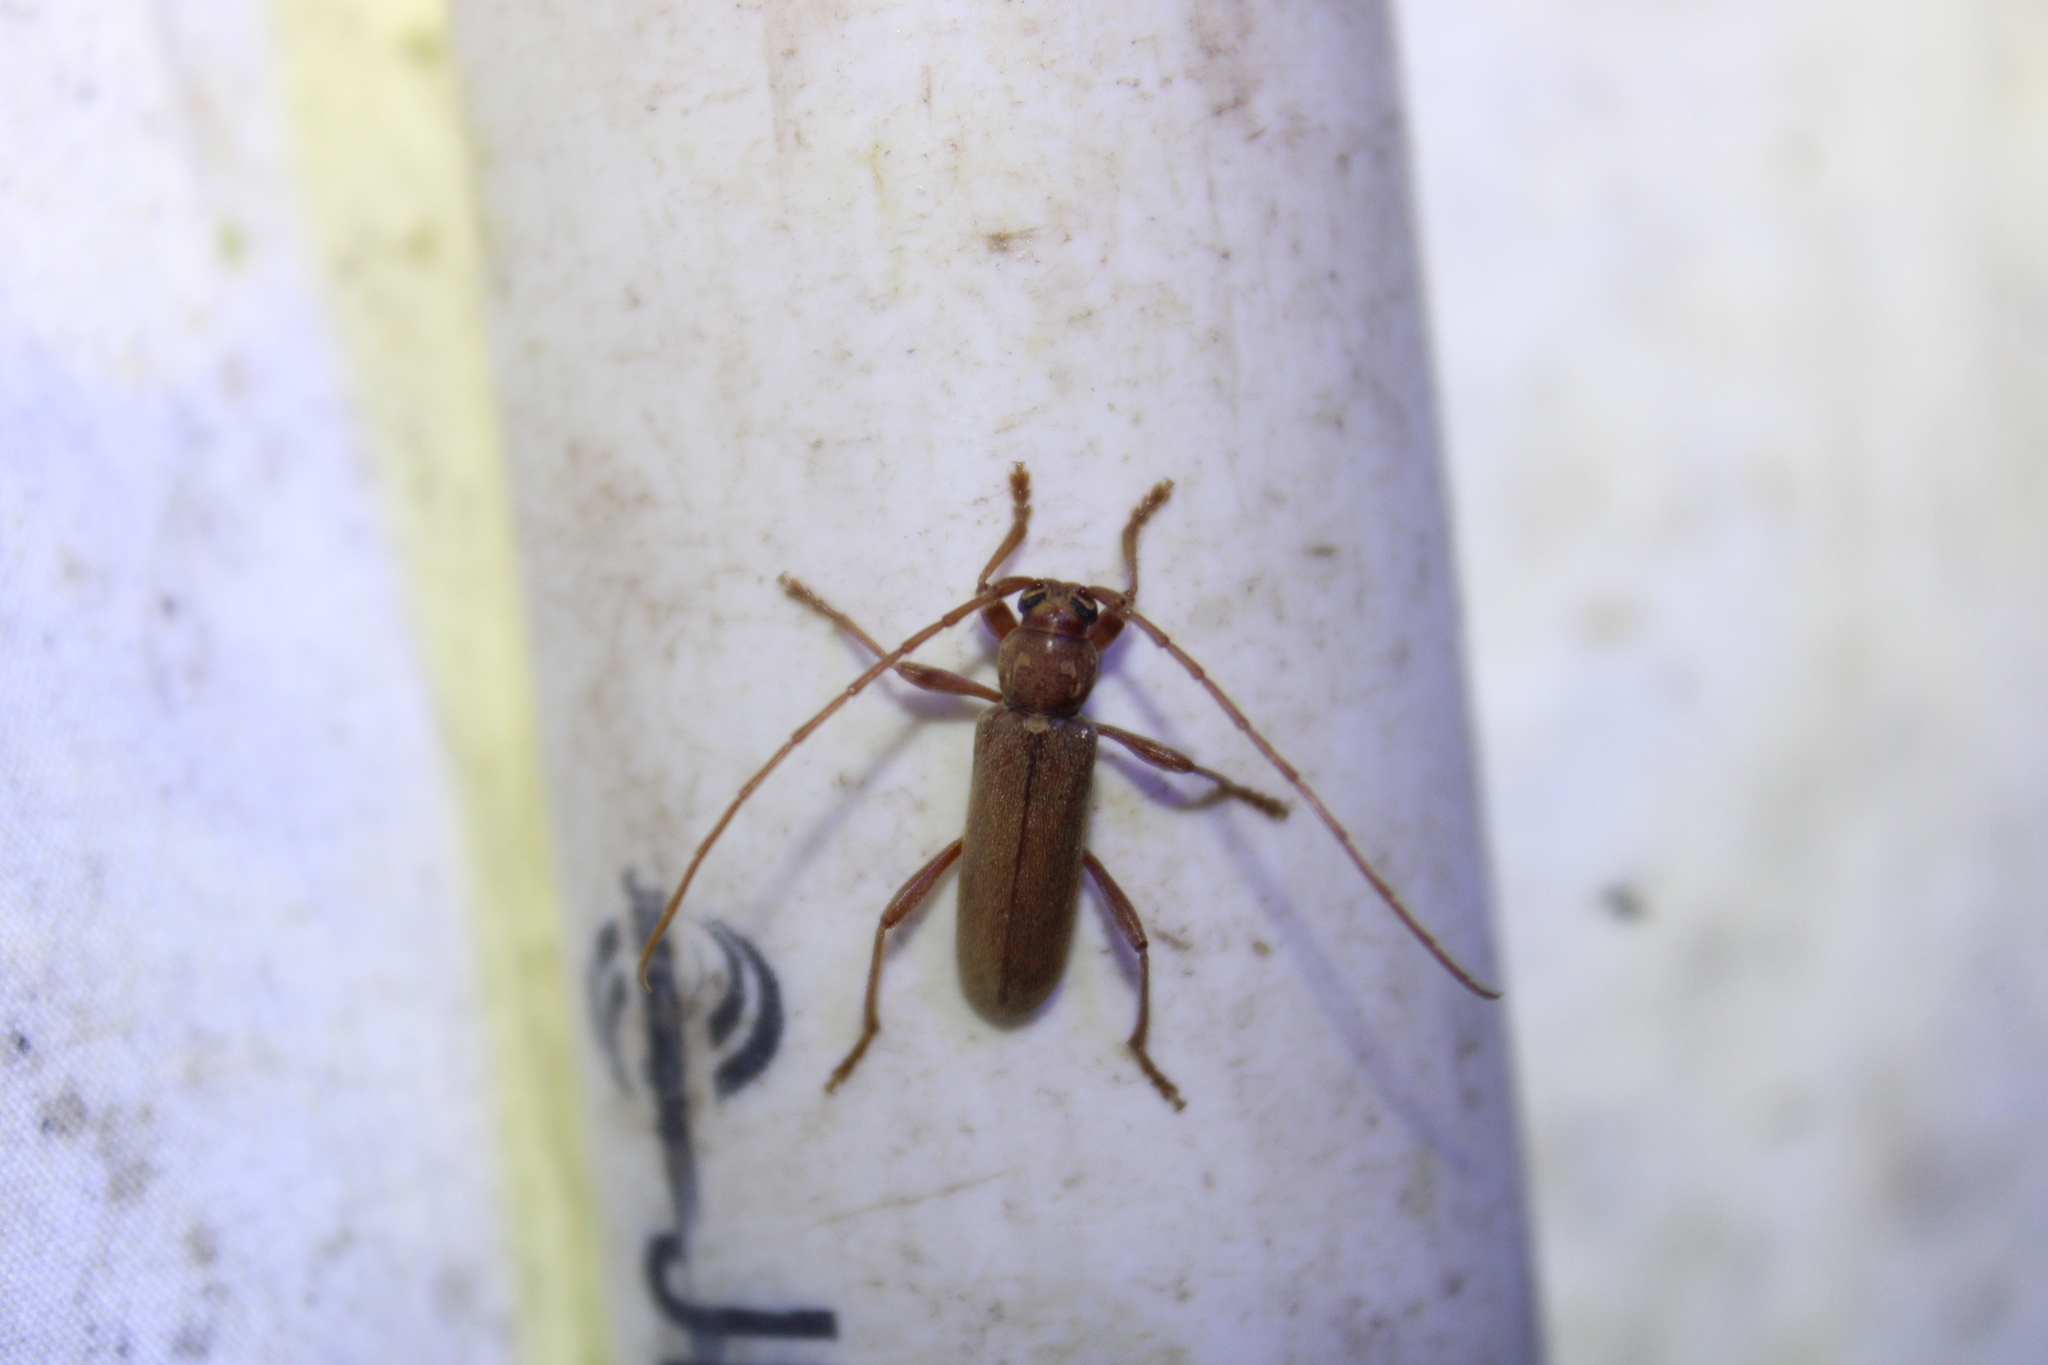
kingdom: Animalia
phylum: Arthropoda
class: Insecta
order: Coleoptera
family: Cerambycidae
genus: Hesperophanes
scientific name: Hesperophanes pubescens
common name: Longhorned wood-boring beetle
